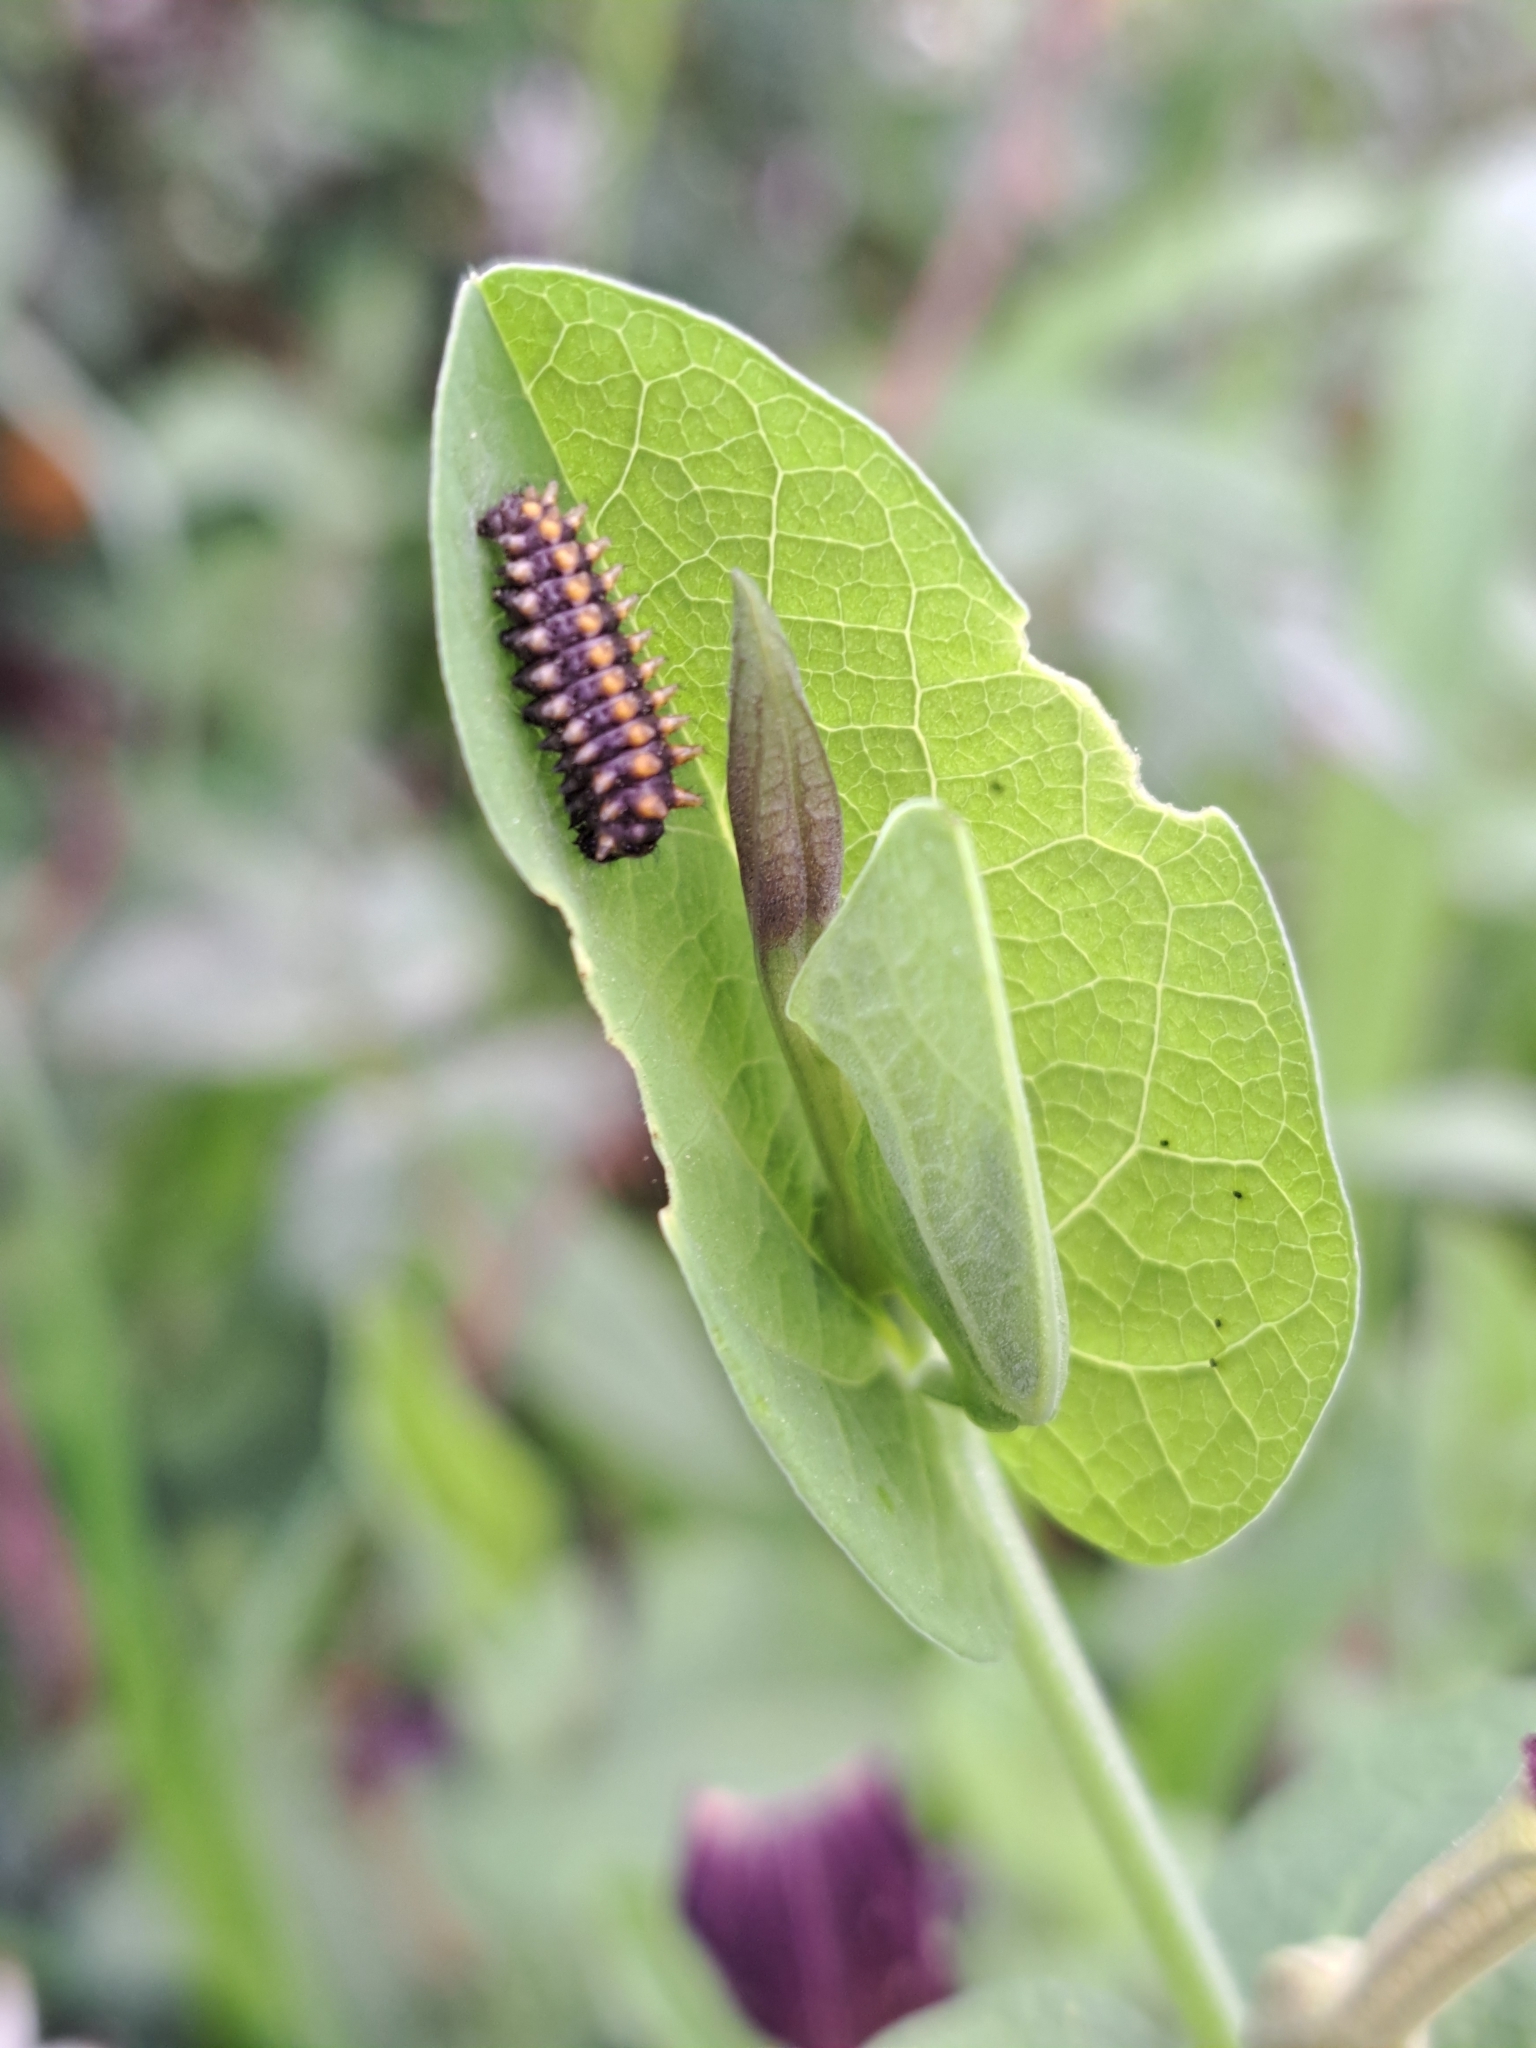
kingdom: Animalia
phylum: Arthropoda
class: Insecta
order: Lepidoptera
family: Papilionidae
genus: Zerynthia
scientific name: Zerynthia cassandra
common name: Italian festoon
